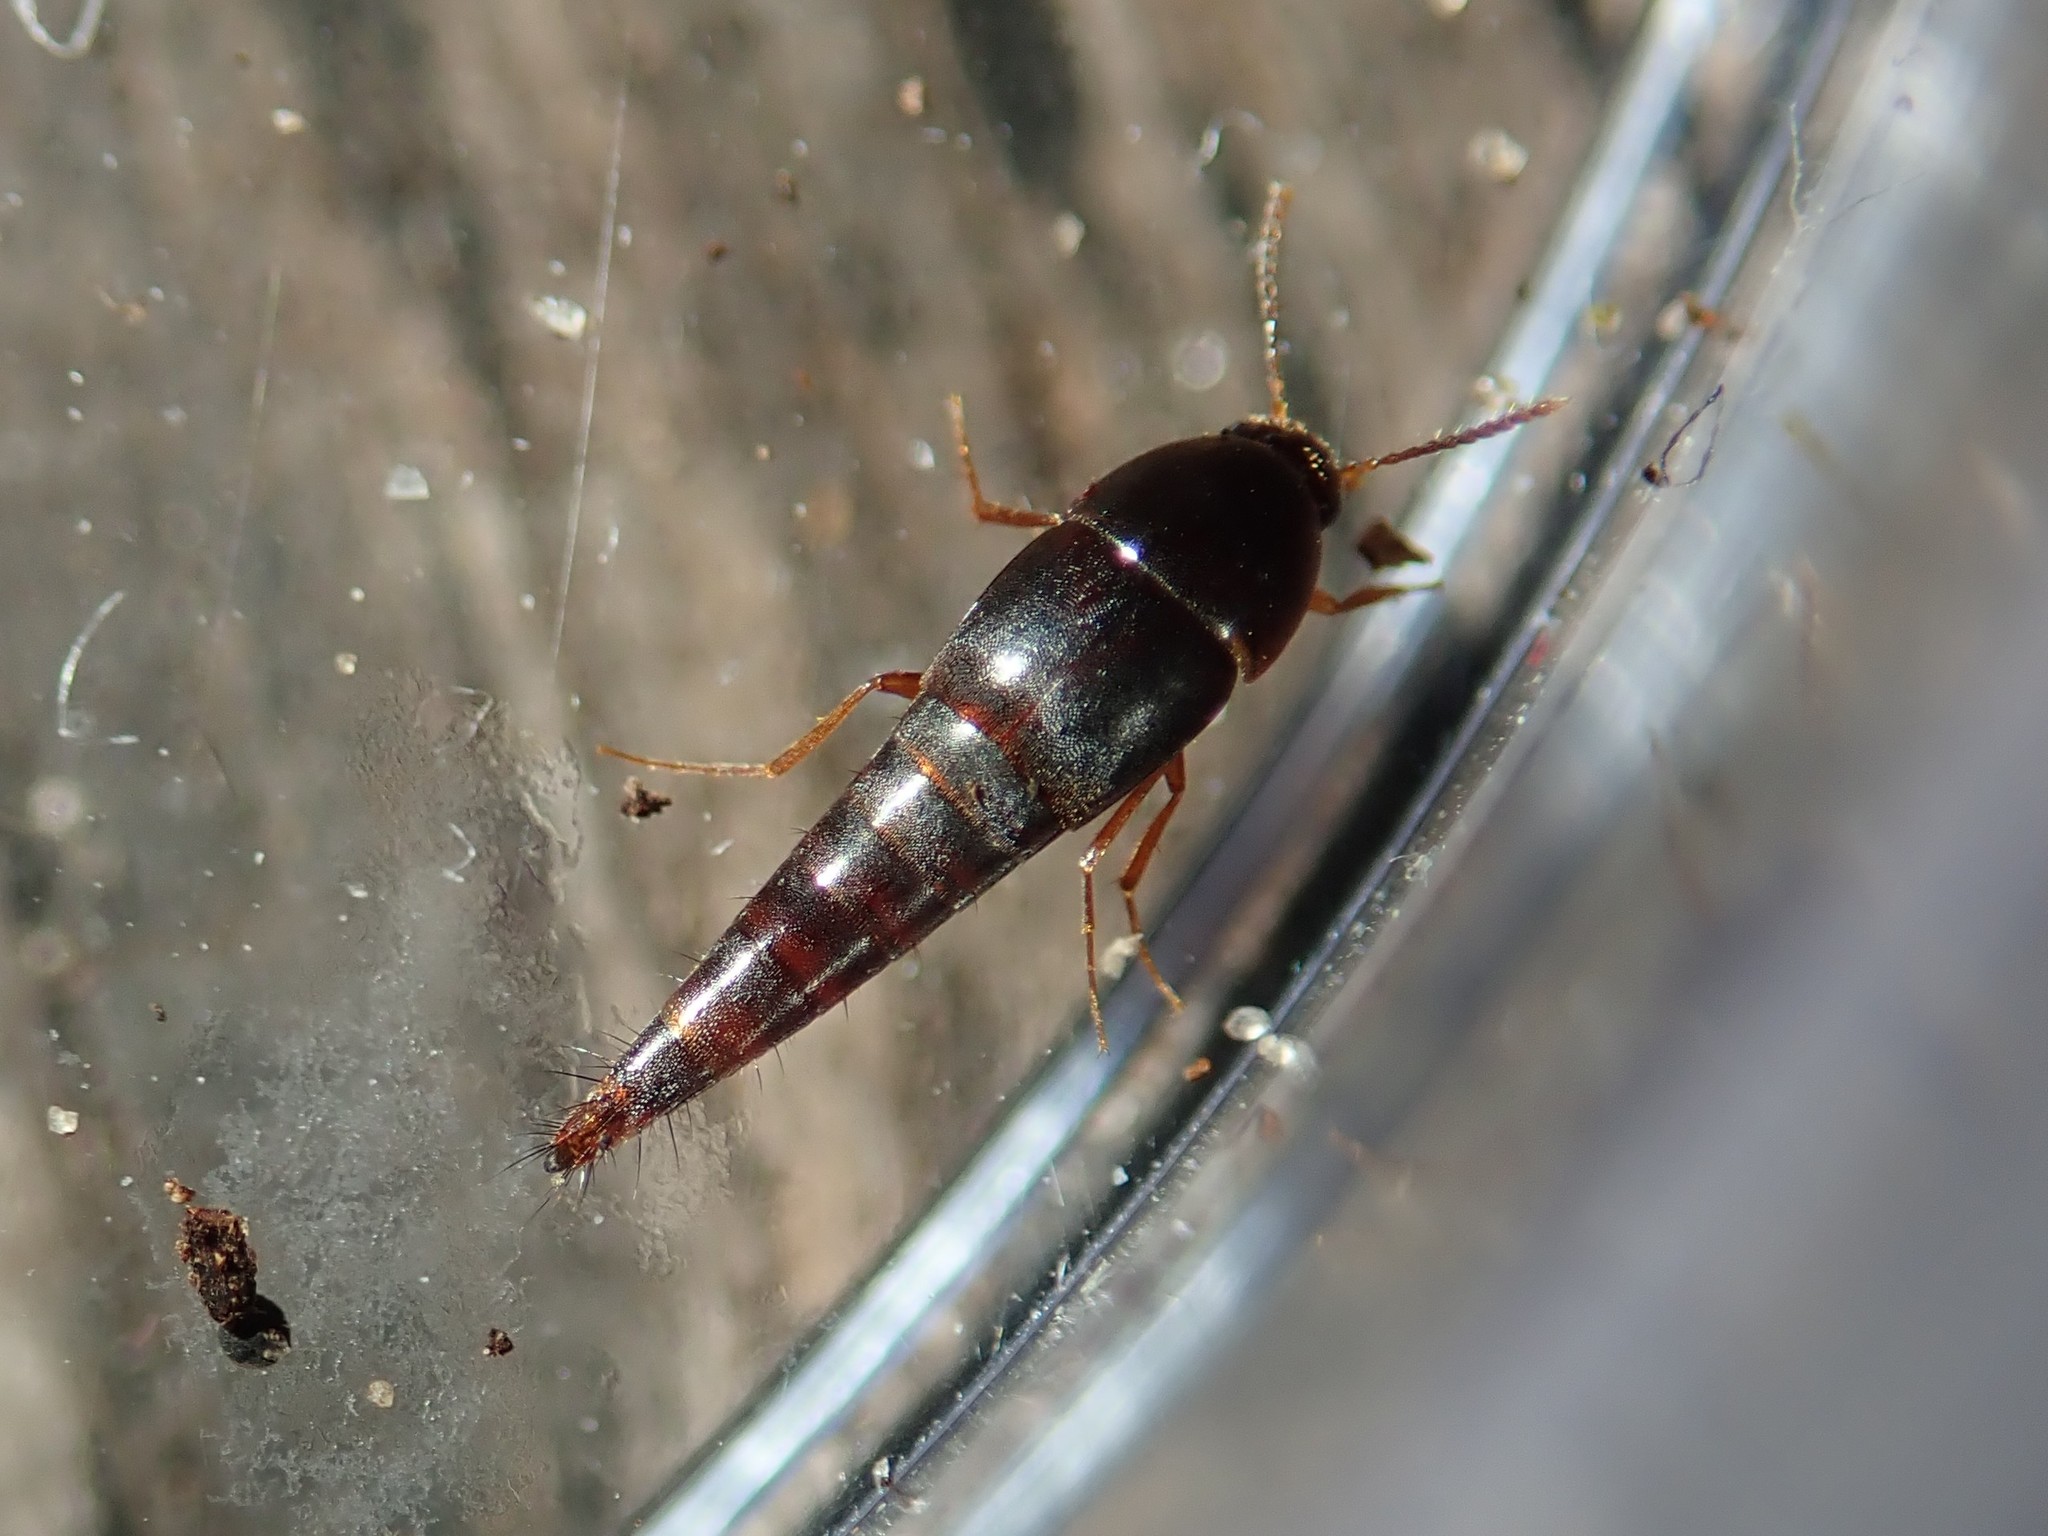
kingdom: Animalia
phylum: Arthropoda
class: Insecta
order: Coleoptera
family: Staphylinidae
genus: Sepedophilus
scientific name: Sepedophilus testaceus
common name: Staph beetle
